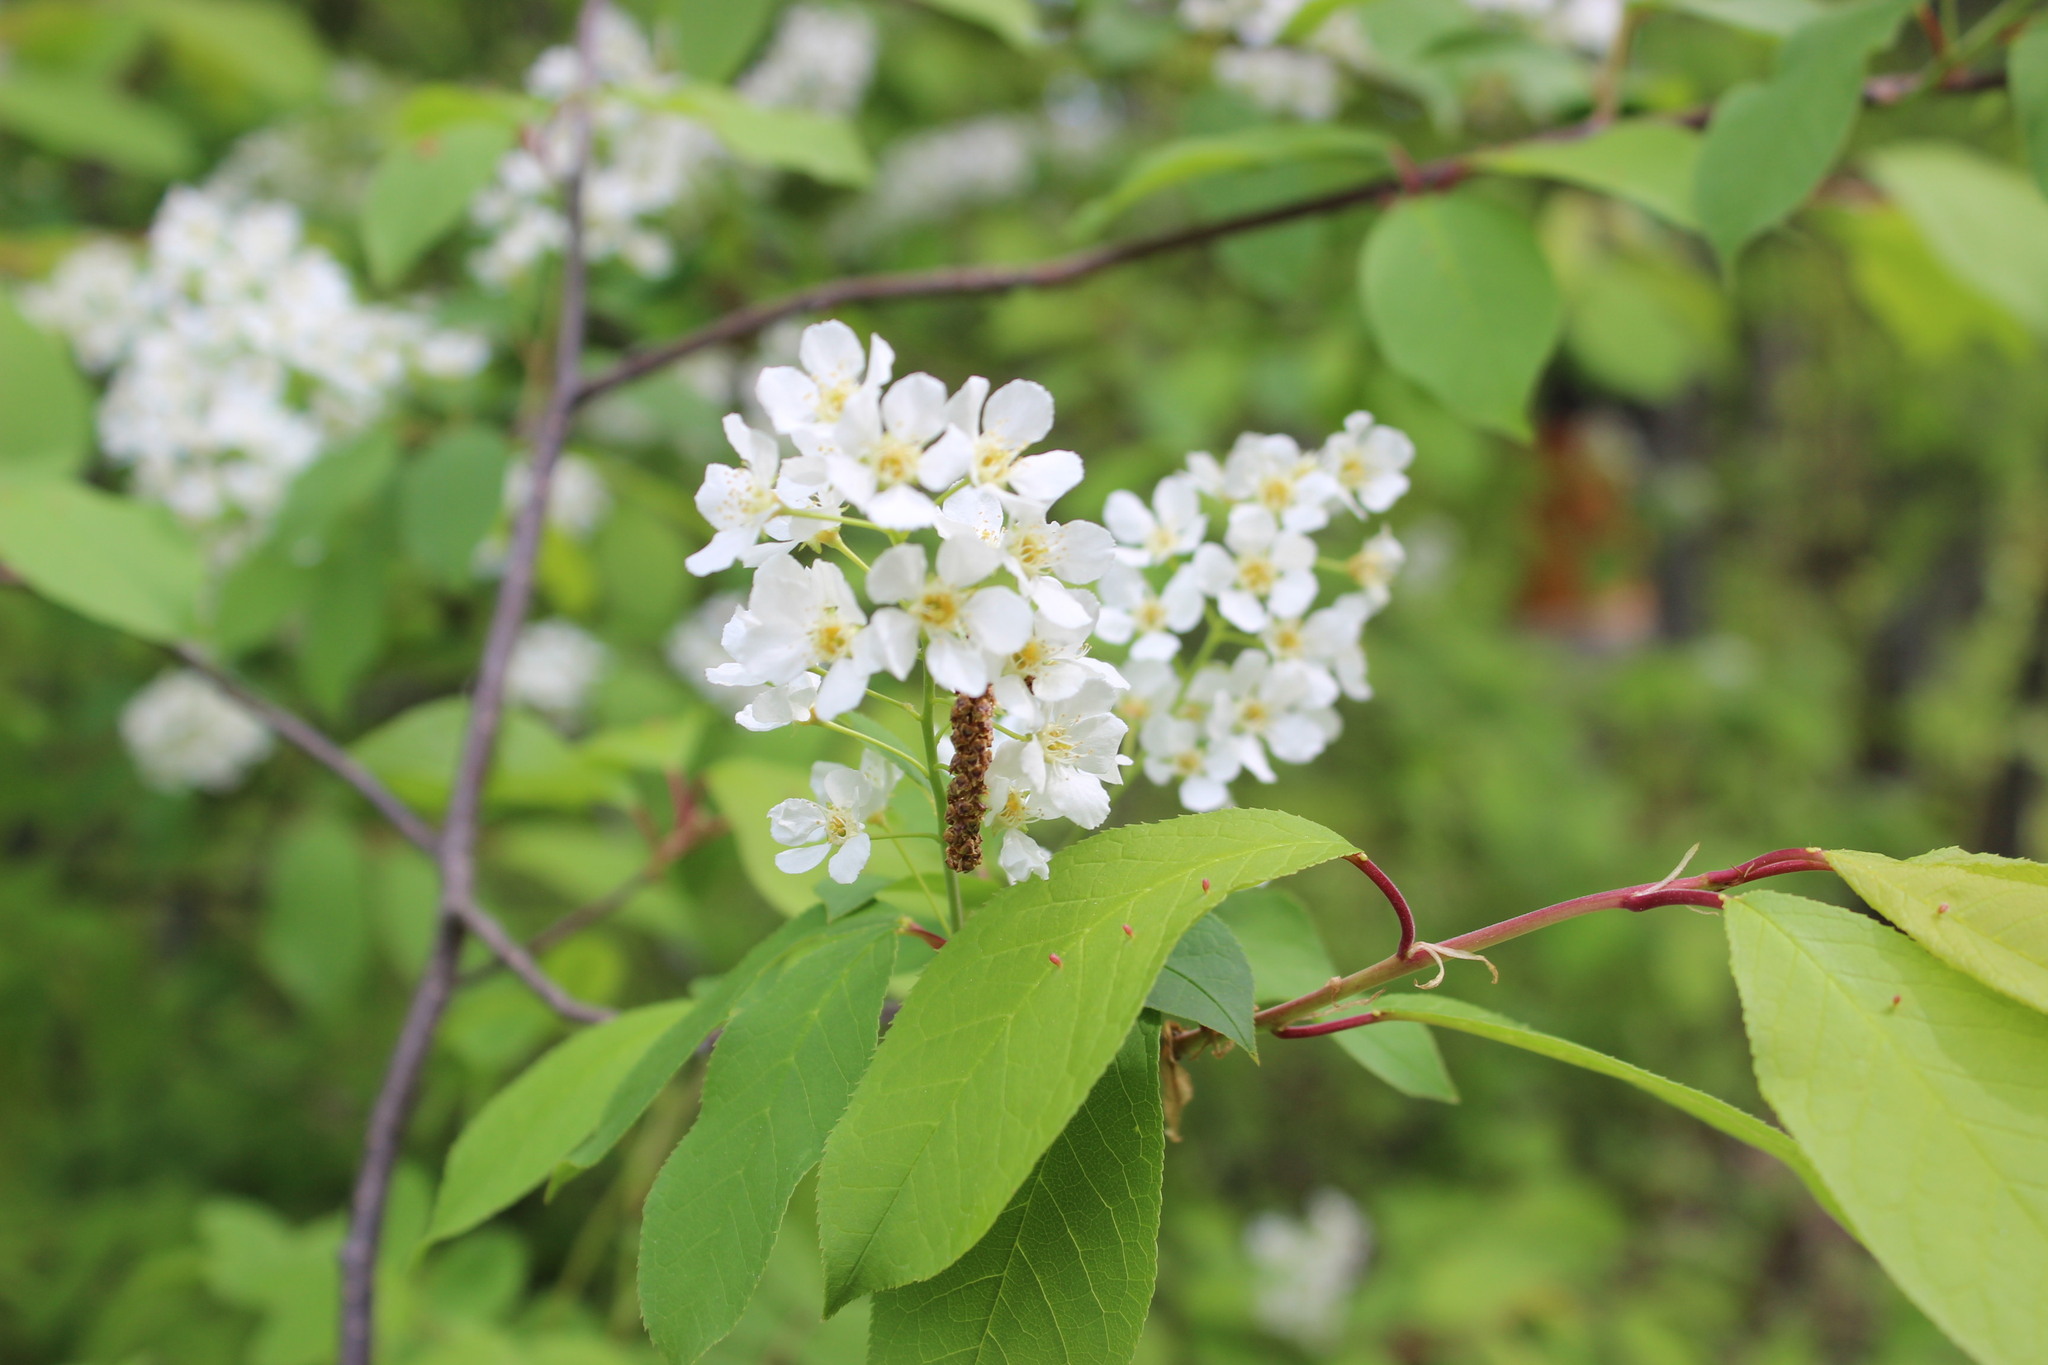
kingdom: Plantae
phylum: Tracheophyta
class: Magnoliopsida
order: Rosales
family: Rosaceae
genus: Prunus
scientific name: Prunus padus
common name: Bird cherry
